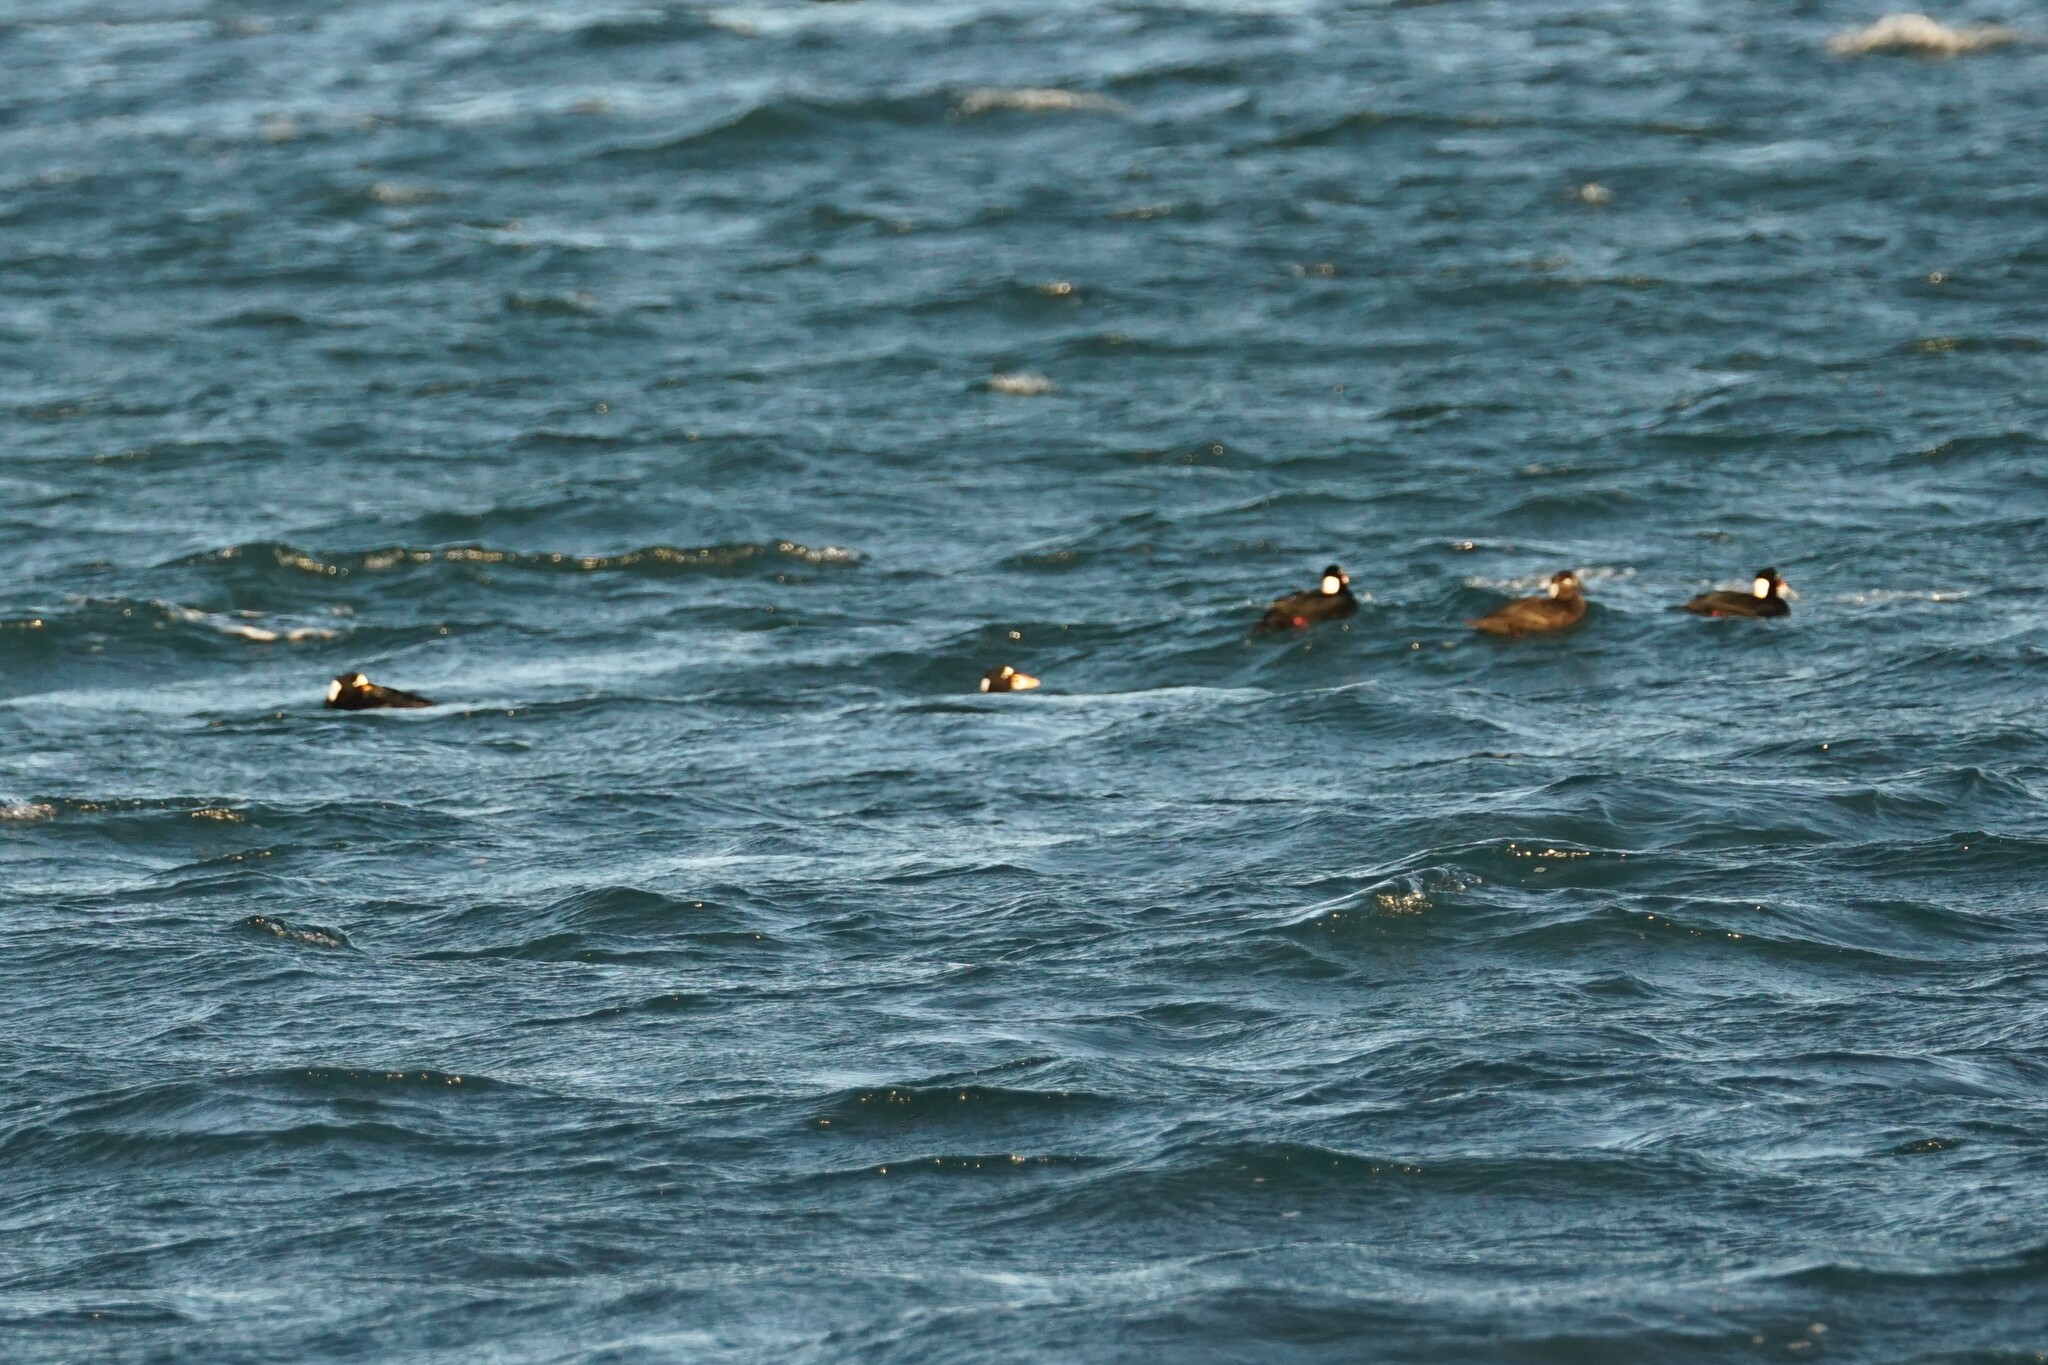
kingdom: Animalia
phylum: Chordata
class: Aves
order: Anseriformes
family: Anatidae
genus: Melanitta
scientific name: Melanitta perspicillata
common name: Surf scoter
